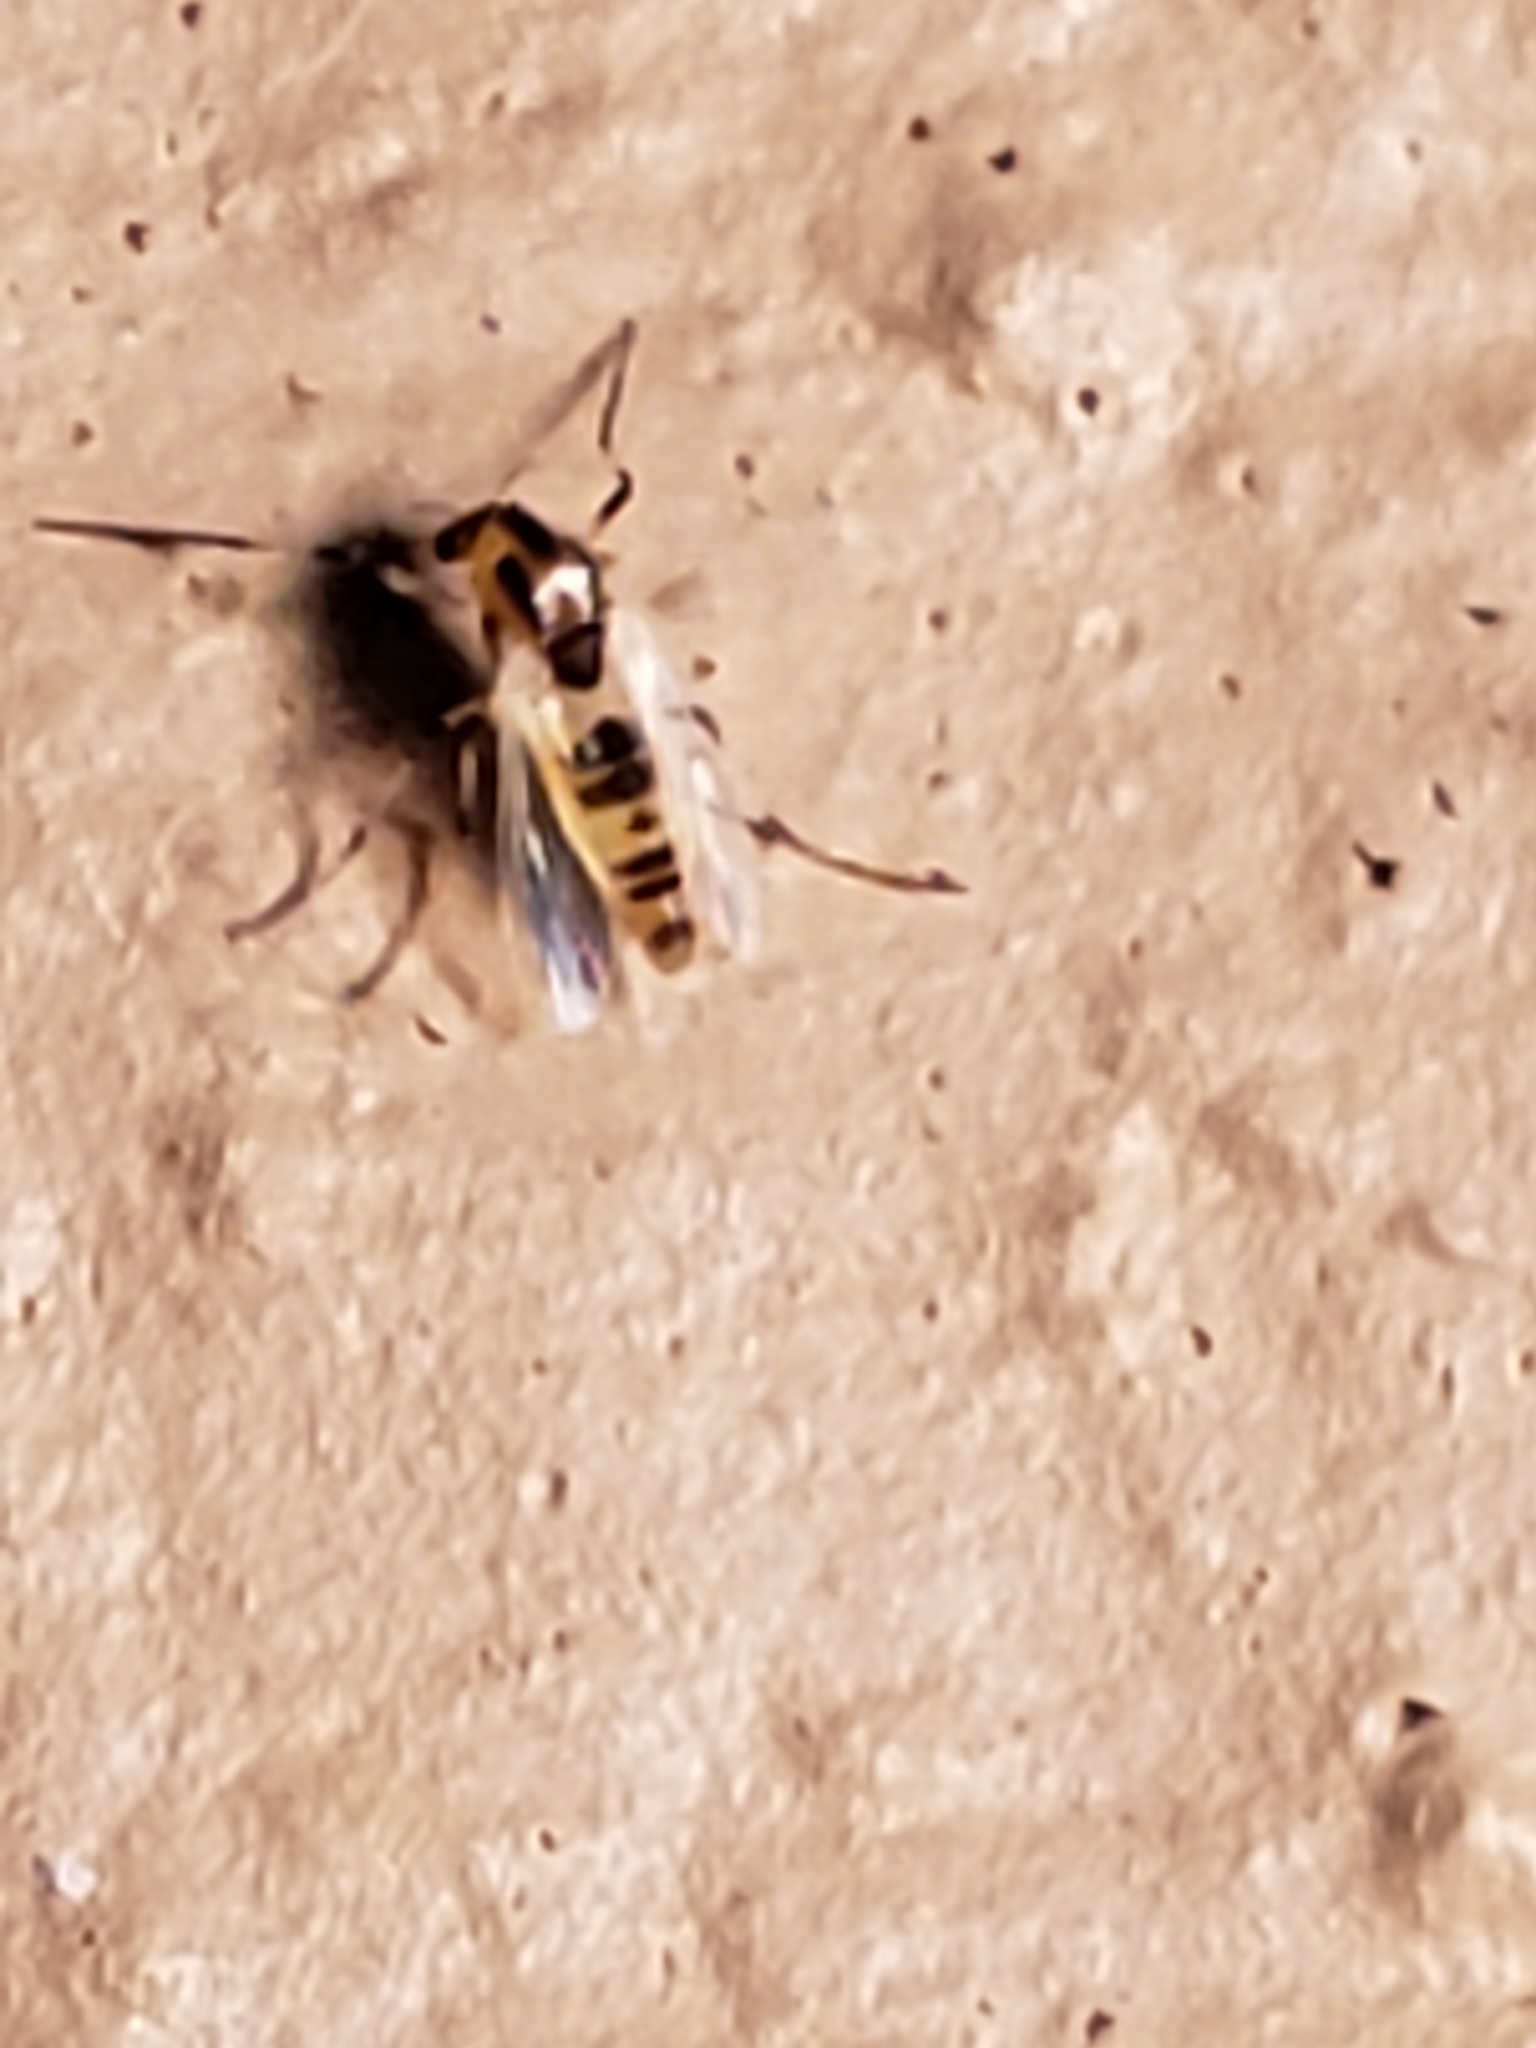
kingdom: Animalia
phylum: Arthropoda
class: Insecta
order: Diptera
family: Chironomidae
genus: Cricotopus
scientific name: Cricotopus
